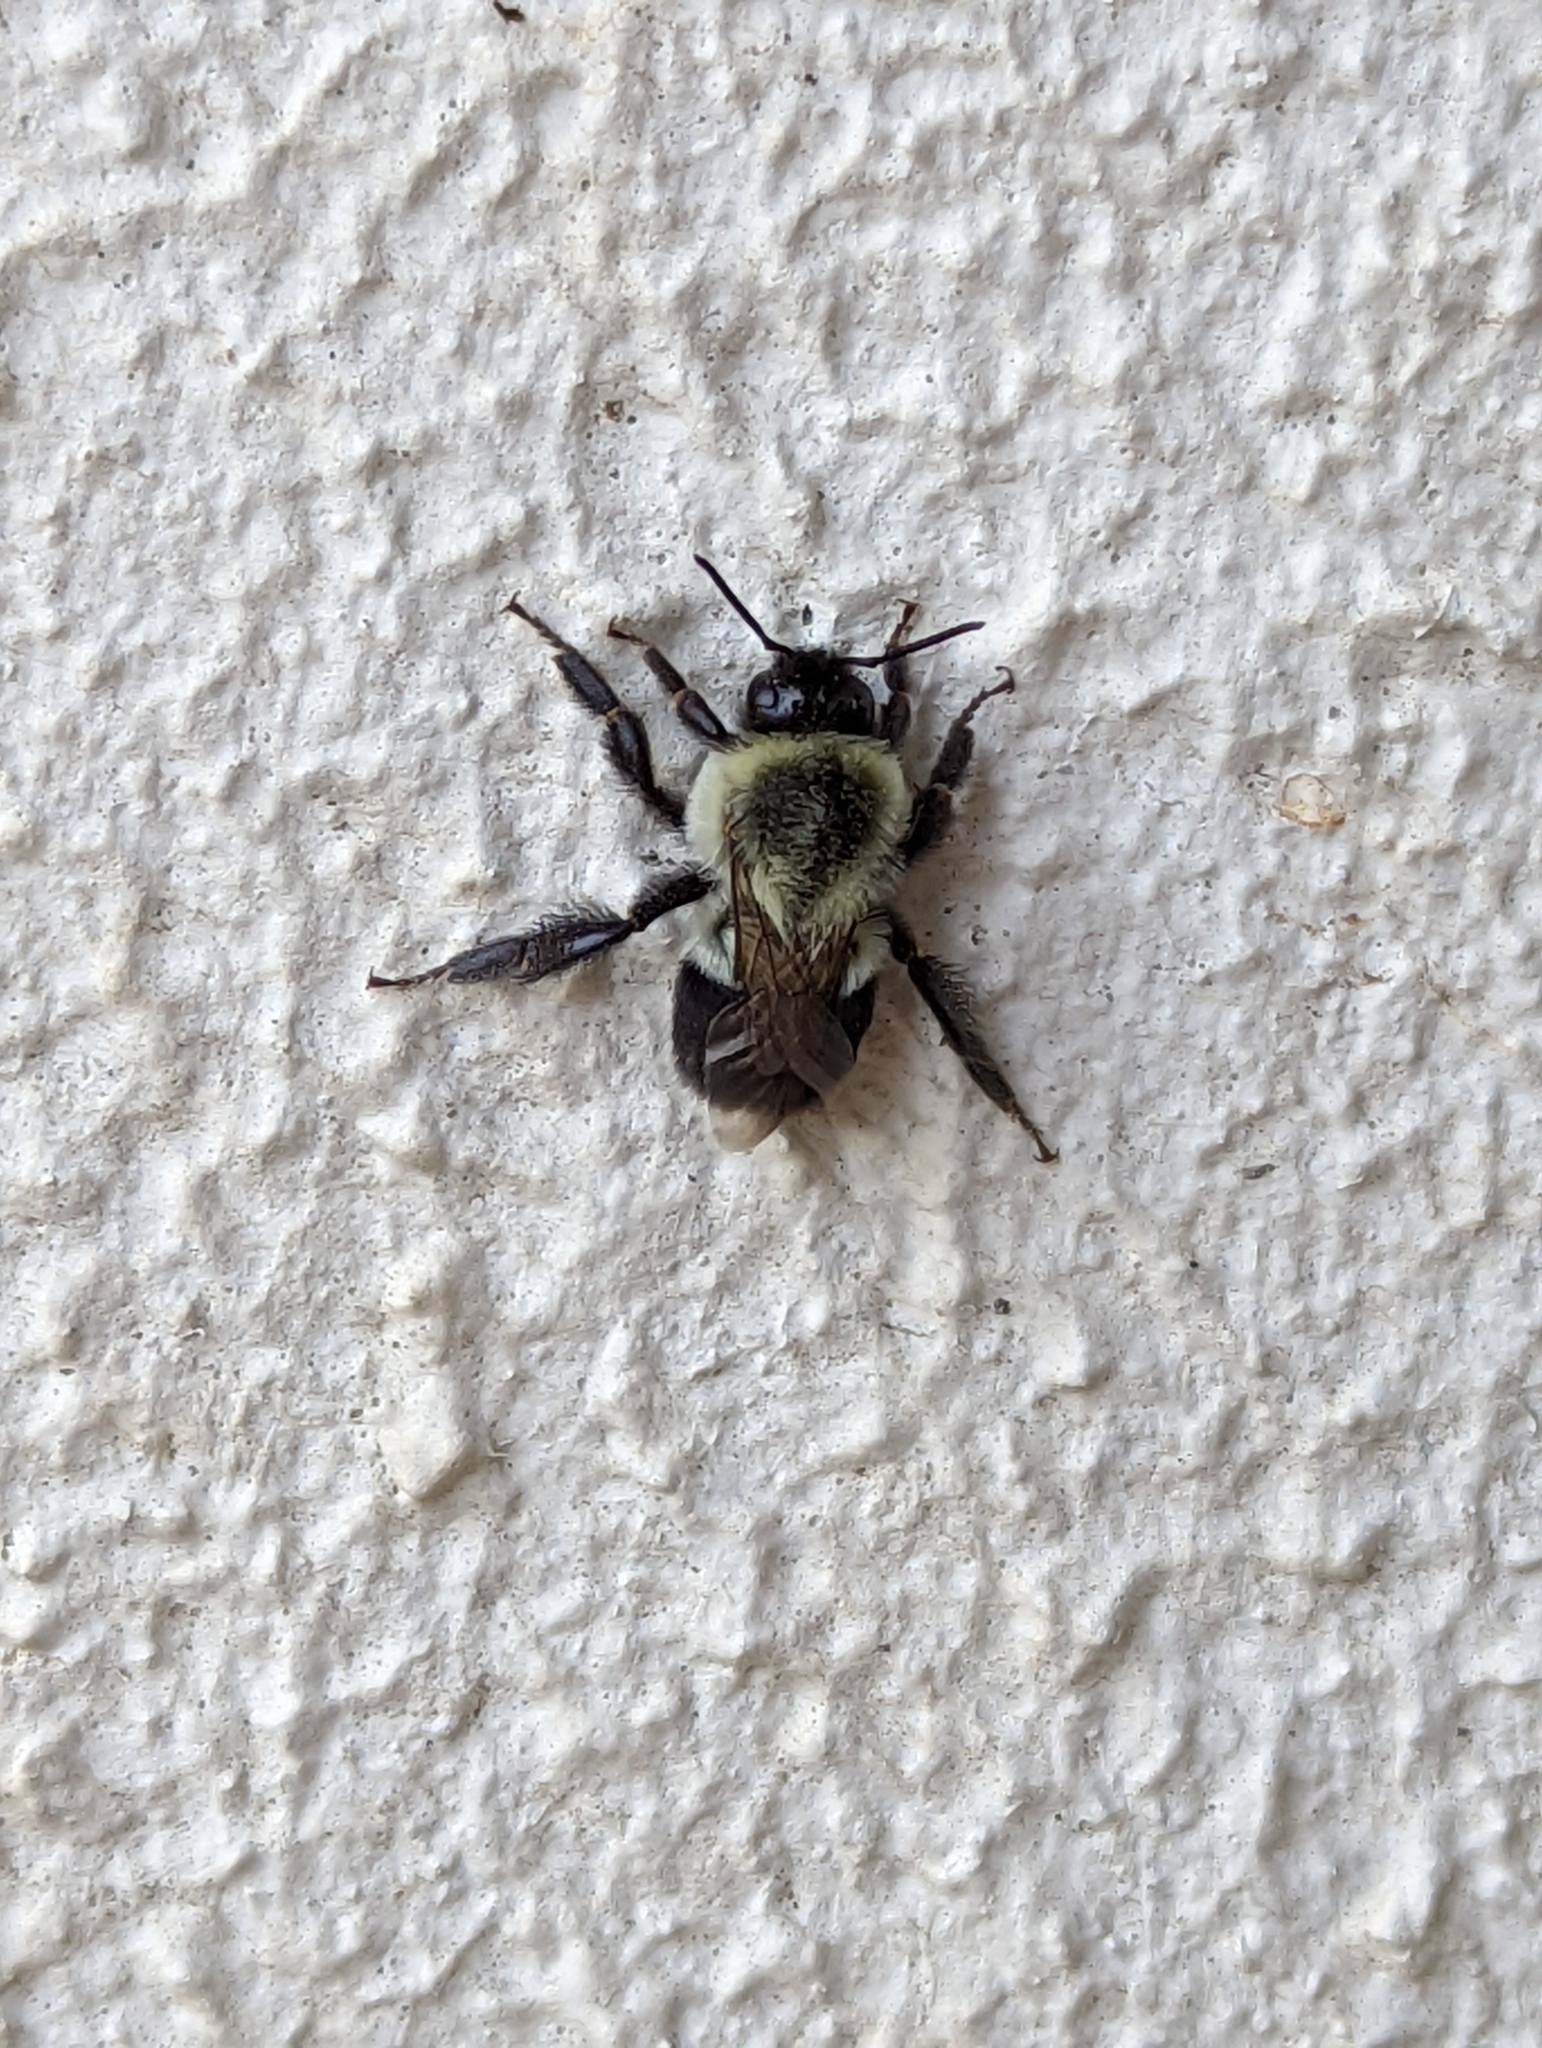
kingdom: Animalia
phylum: Arthropoda
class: Insecta
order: Hymenoptera
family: Apidae
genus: Bombus
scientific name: Bombus impatiens
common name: Common eastern bumble bee
